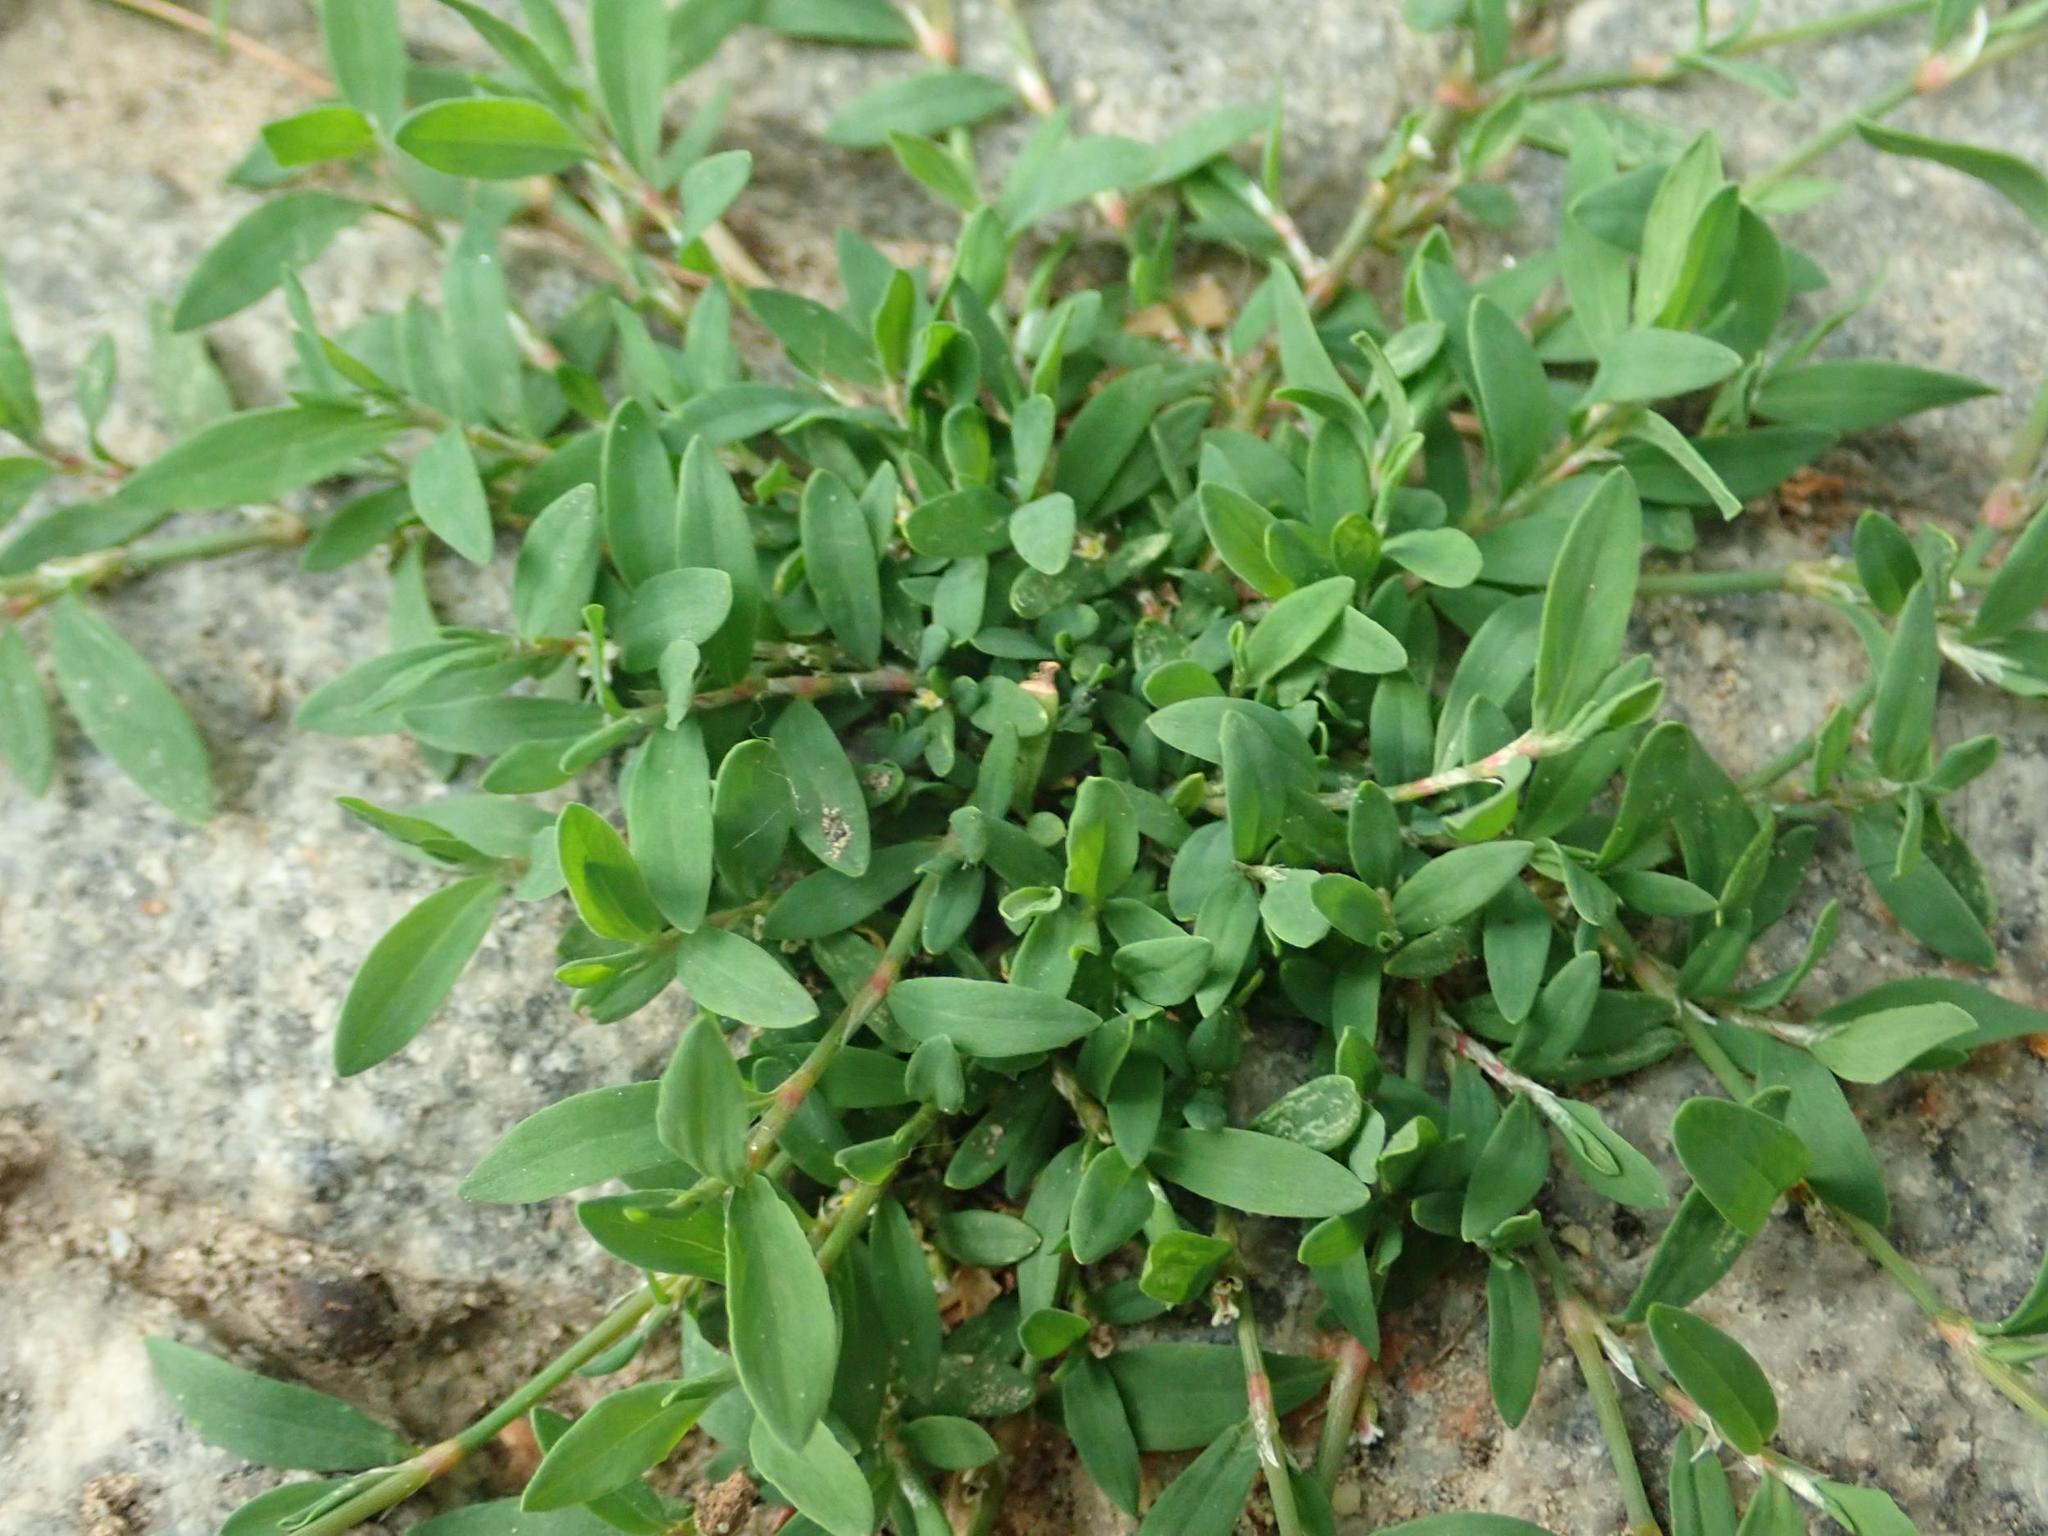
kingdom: Plantae
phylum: Tracheophyta
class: Magnoliopsida
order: Caryophyllales
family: Polygonaceae
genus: Polygonum
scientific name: Polygonum aviculare
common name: Prostrate knotweed
